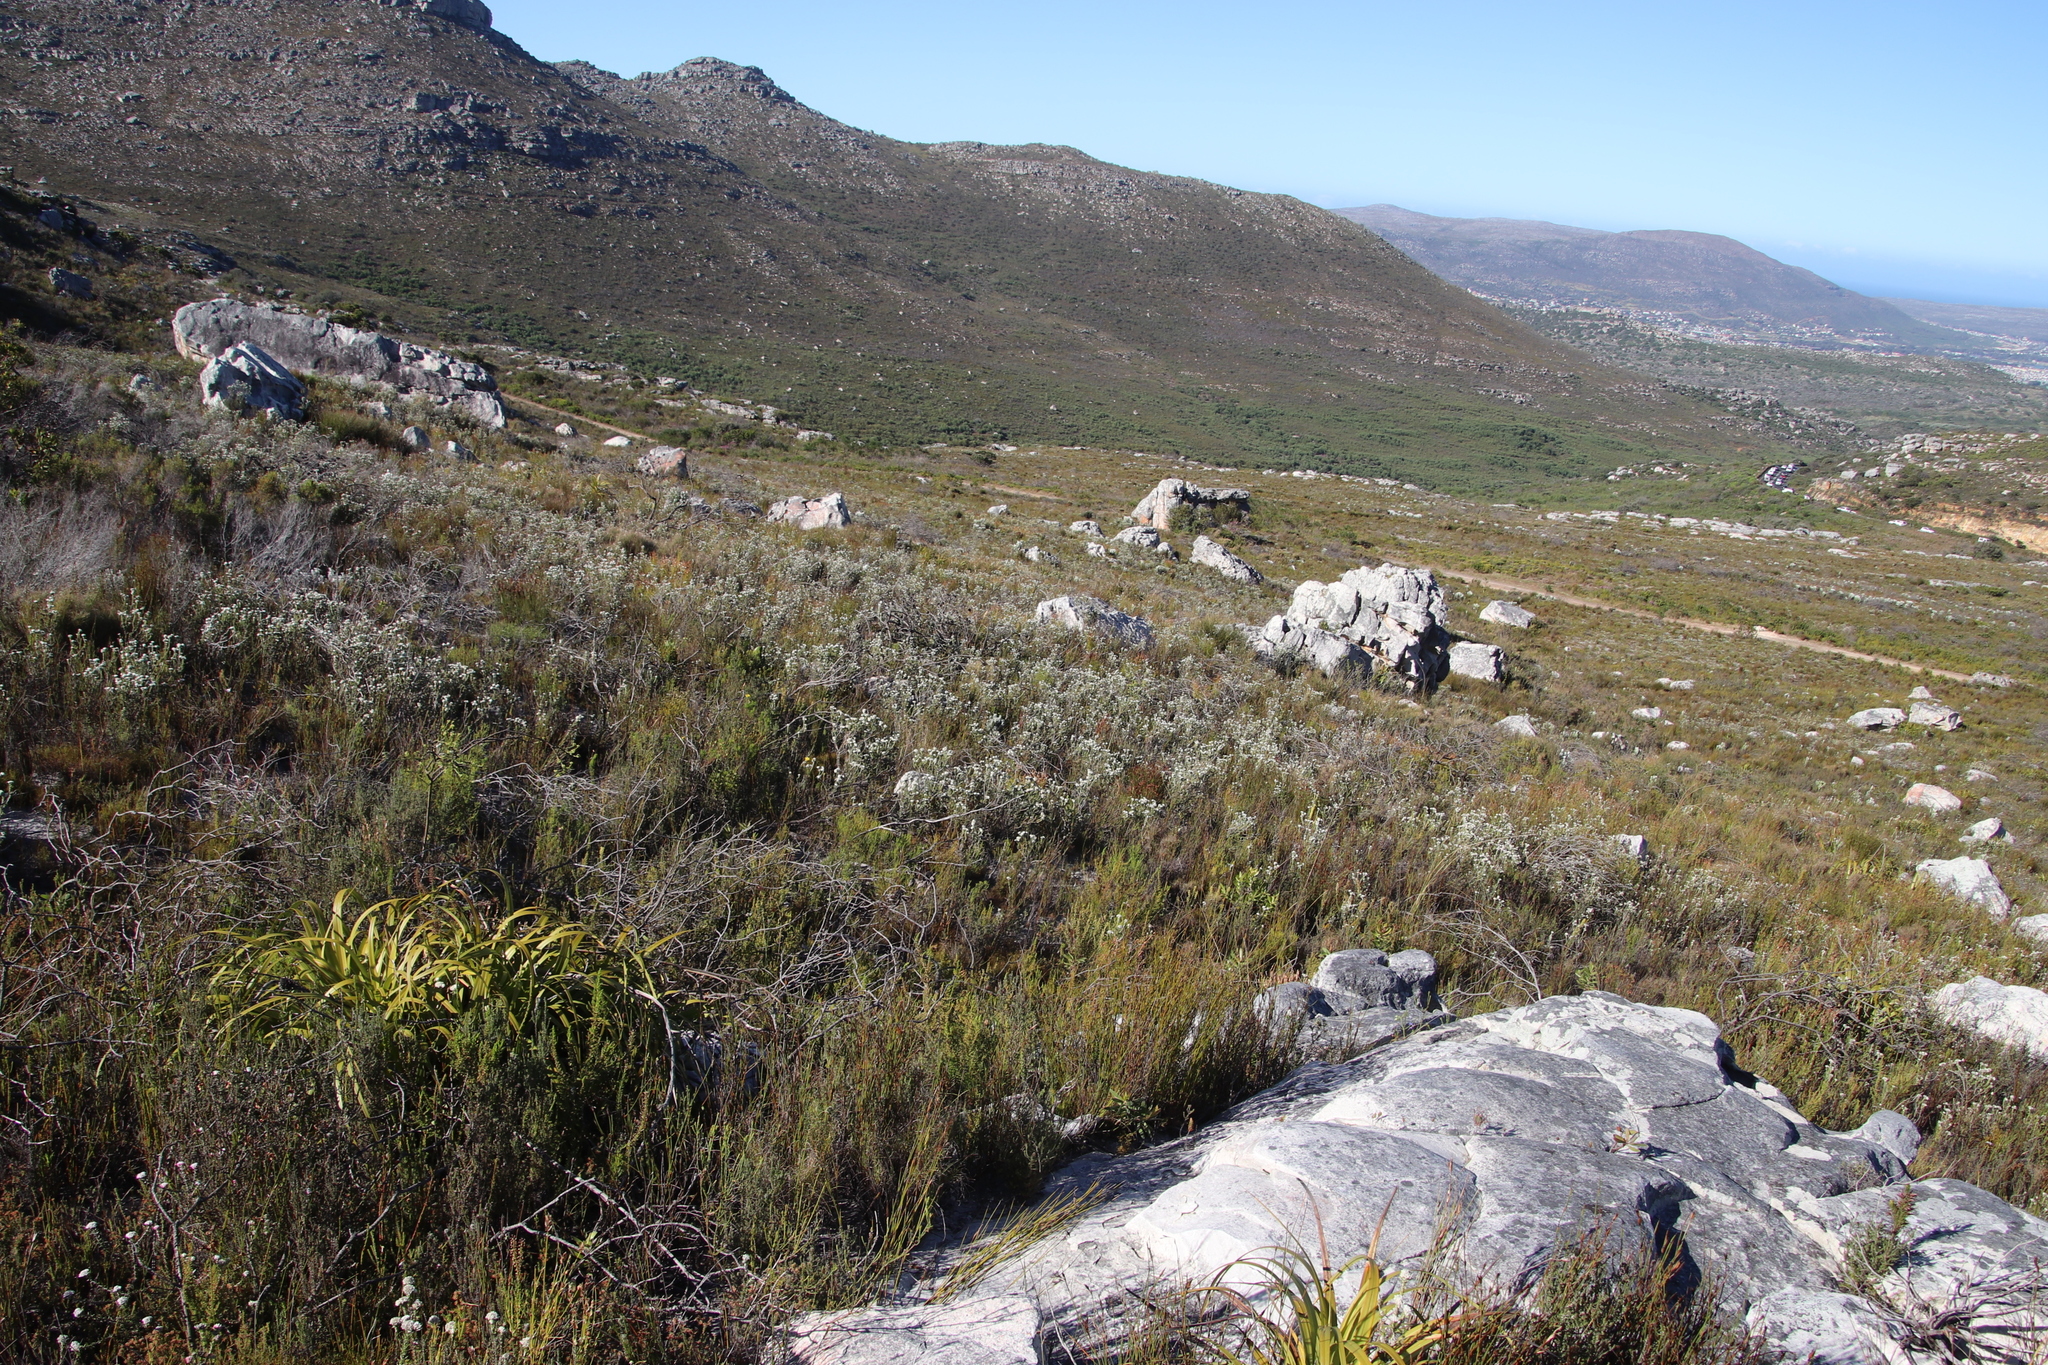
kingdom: Plantae
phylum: Tracheophyta
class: Magnoliopsida
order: Asterales
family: Asteraceae
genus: Metalasia
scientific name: Metalasia compacta
